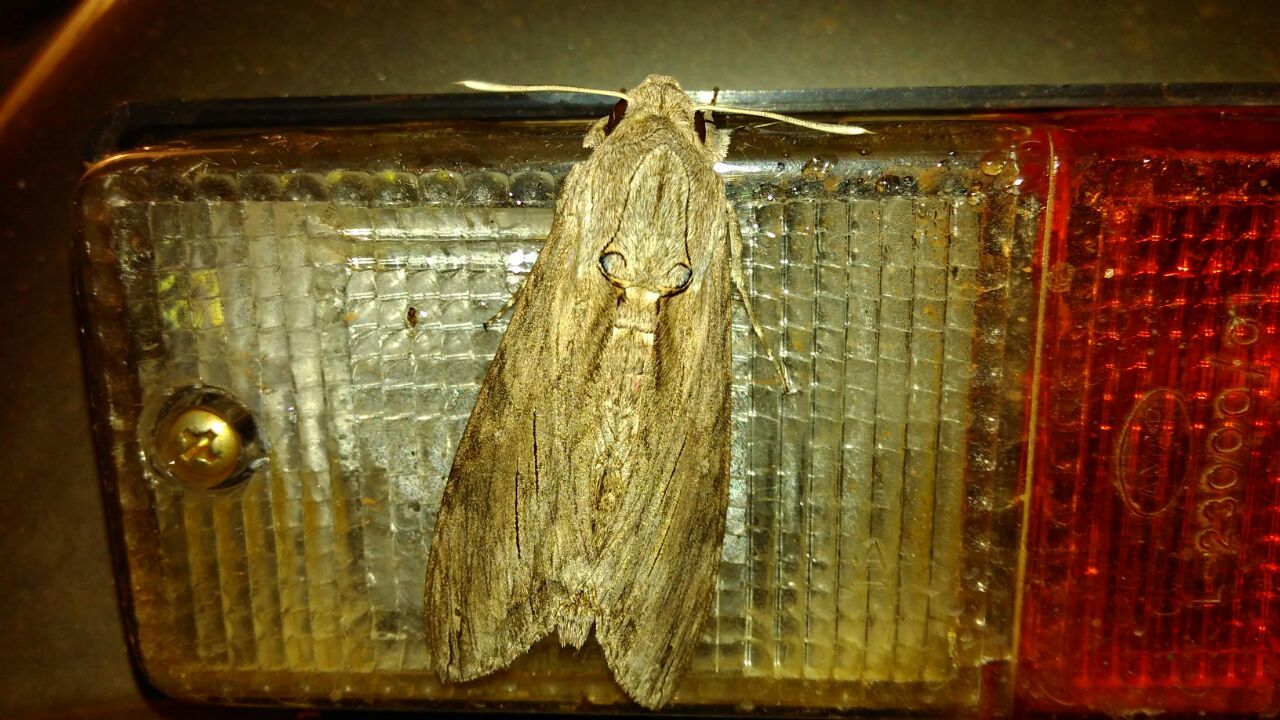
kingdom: Animalia
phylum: Arthropoda
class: Insecta
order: Lepidoptera
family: Sphingidae
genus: Agrius
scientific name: Agrius convolvuli
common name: Convolvulus hawkmoth
